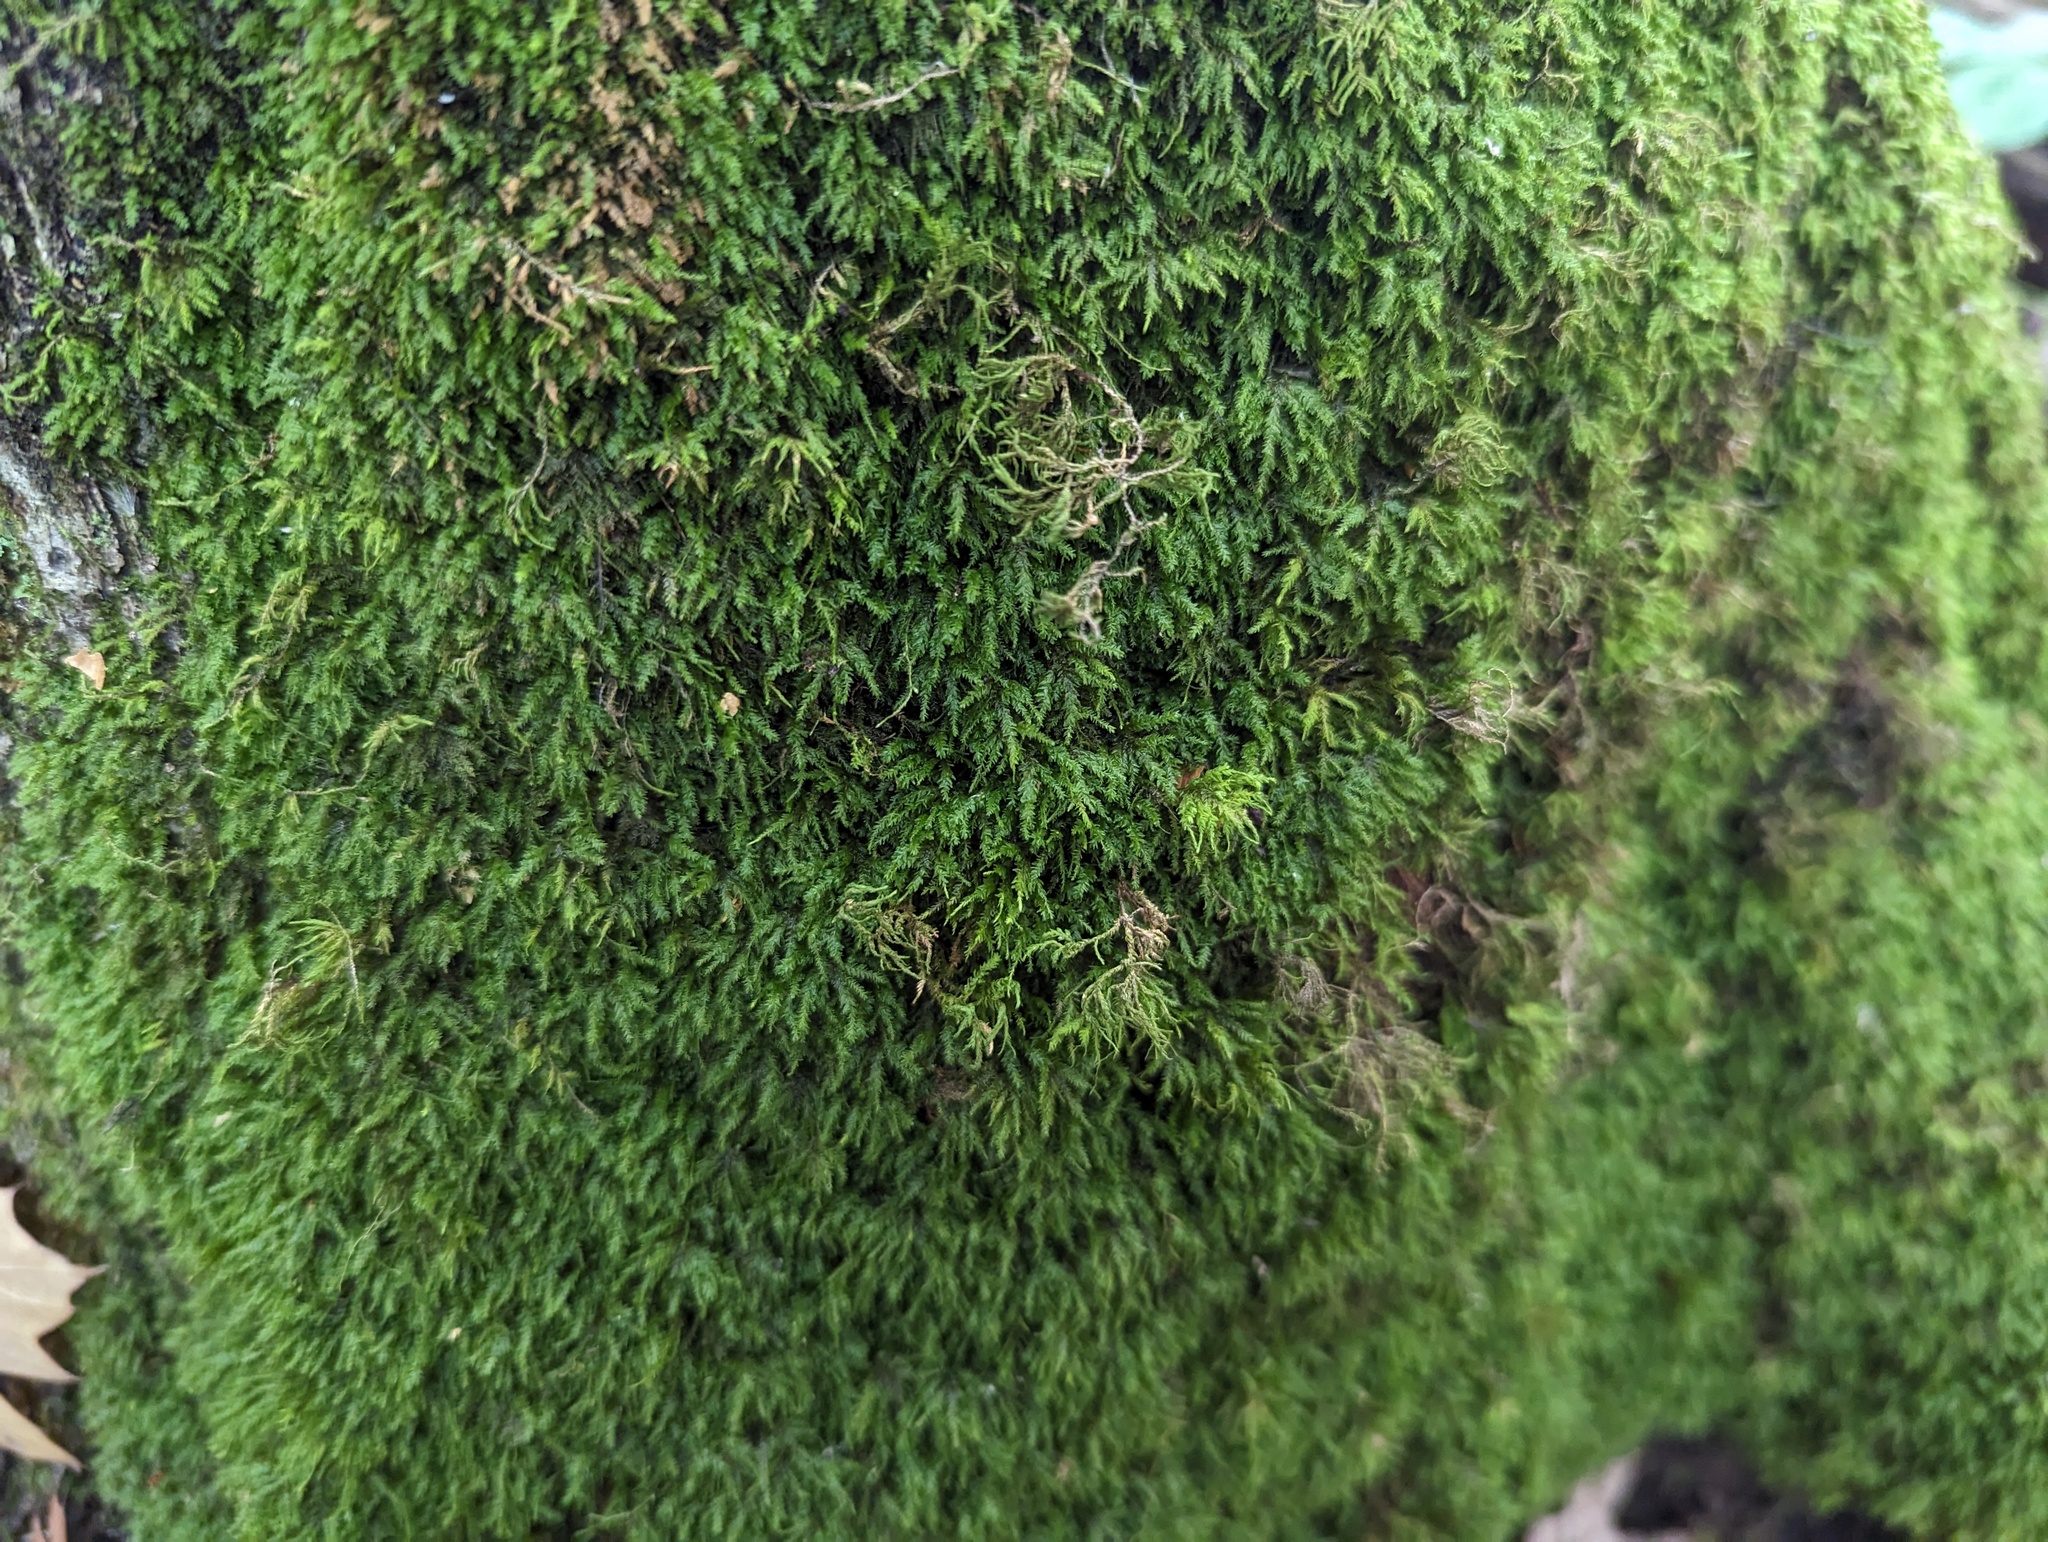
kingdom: Plantae
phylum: Bryophyta
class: Bryopsida
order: Hypnales
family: Neckeraceae
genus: Pseudanomodon
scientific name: Pseudanomodon attenuatus
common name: Tree-skirt moss
